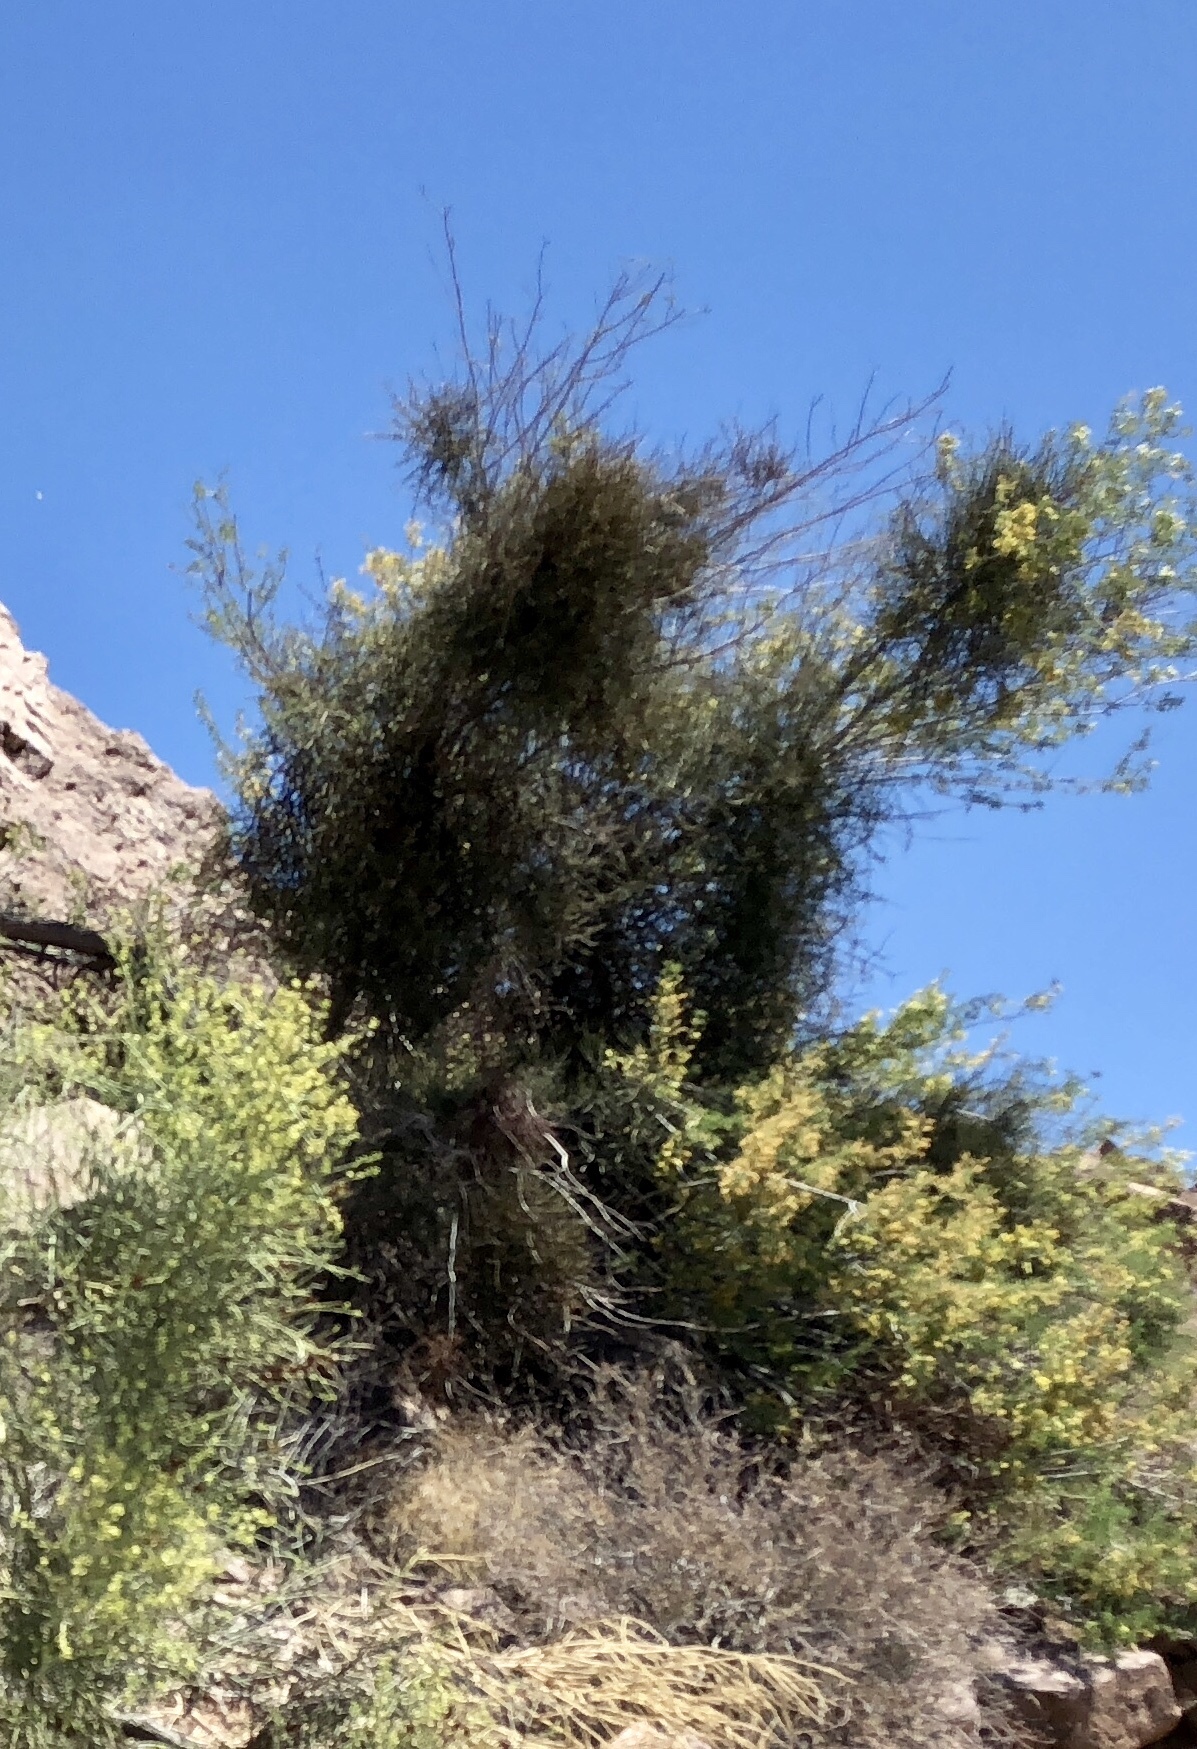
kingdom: Plantae
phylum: Tracheophyta
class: Magnoliopsida
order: Santalales
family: Viscaceae
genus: Phoradendron
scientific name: Phoradendron californicum
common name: Acacia mistletoe
